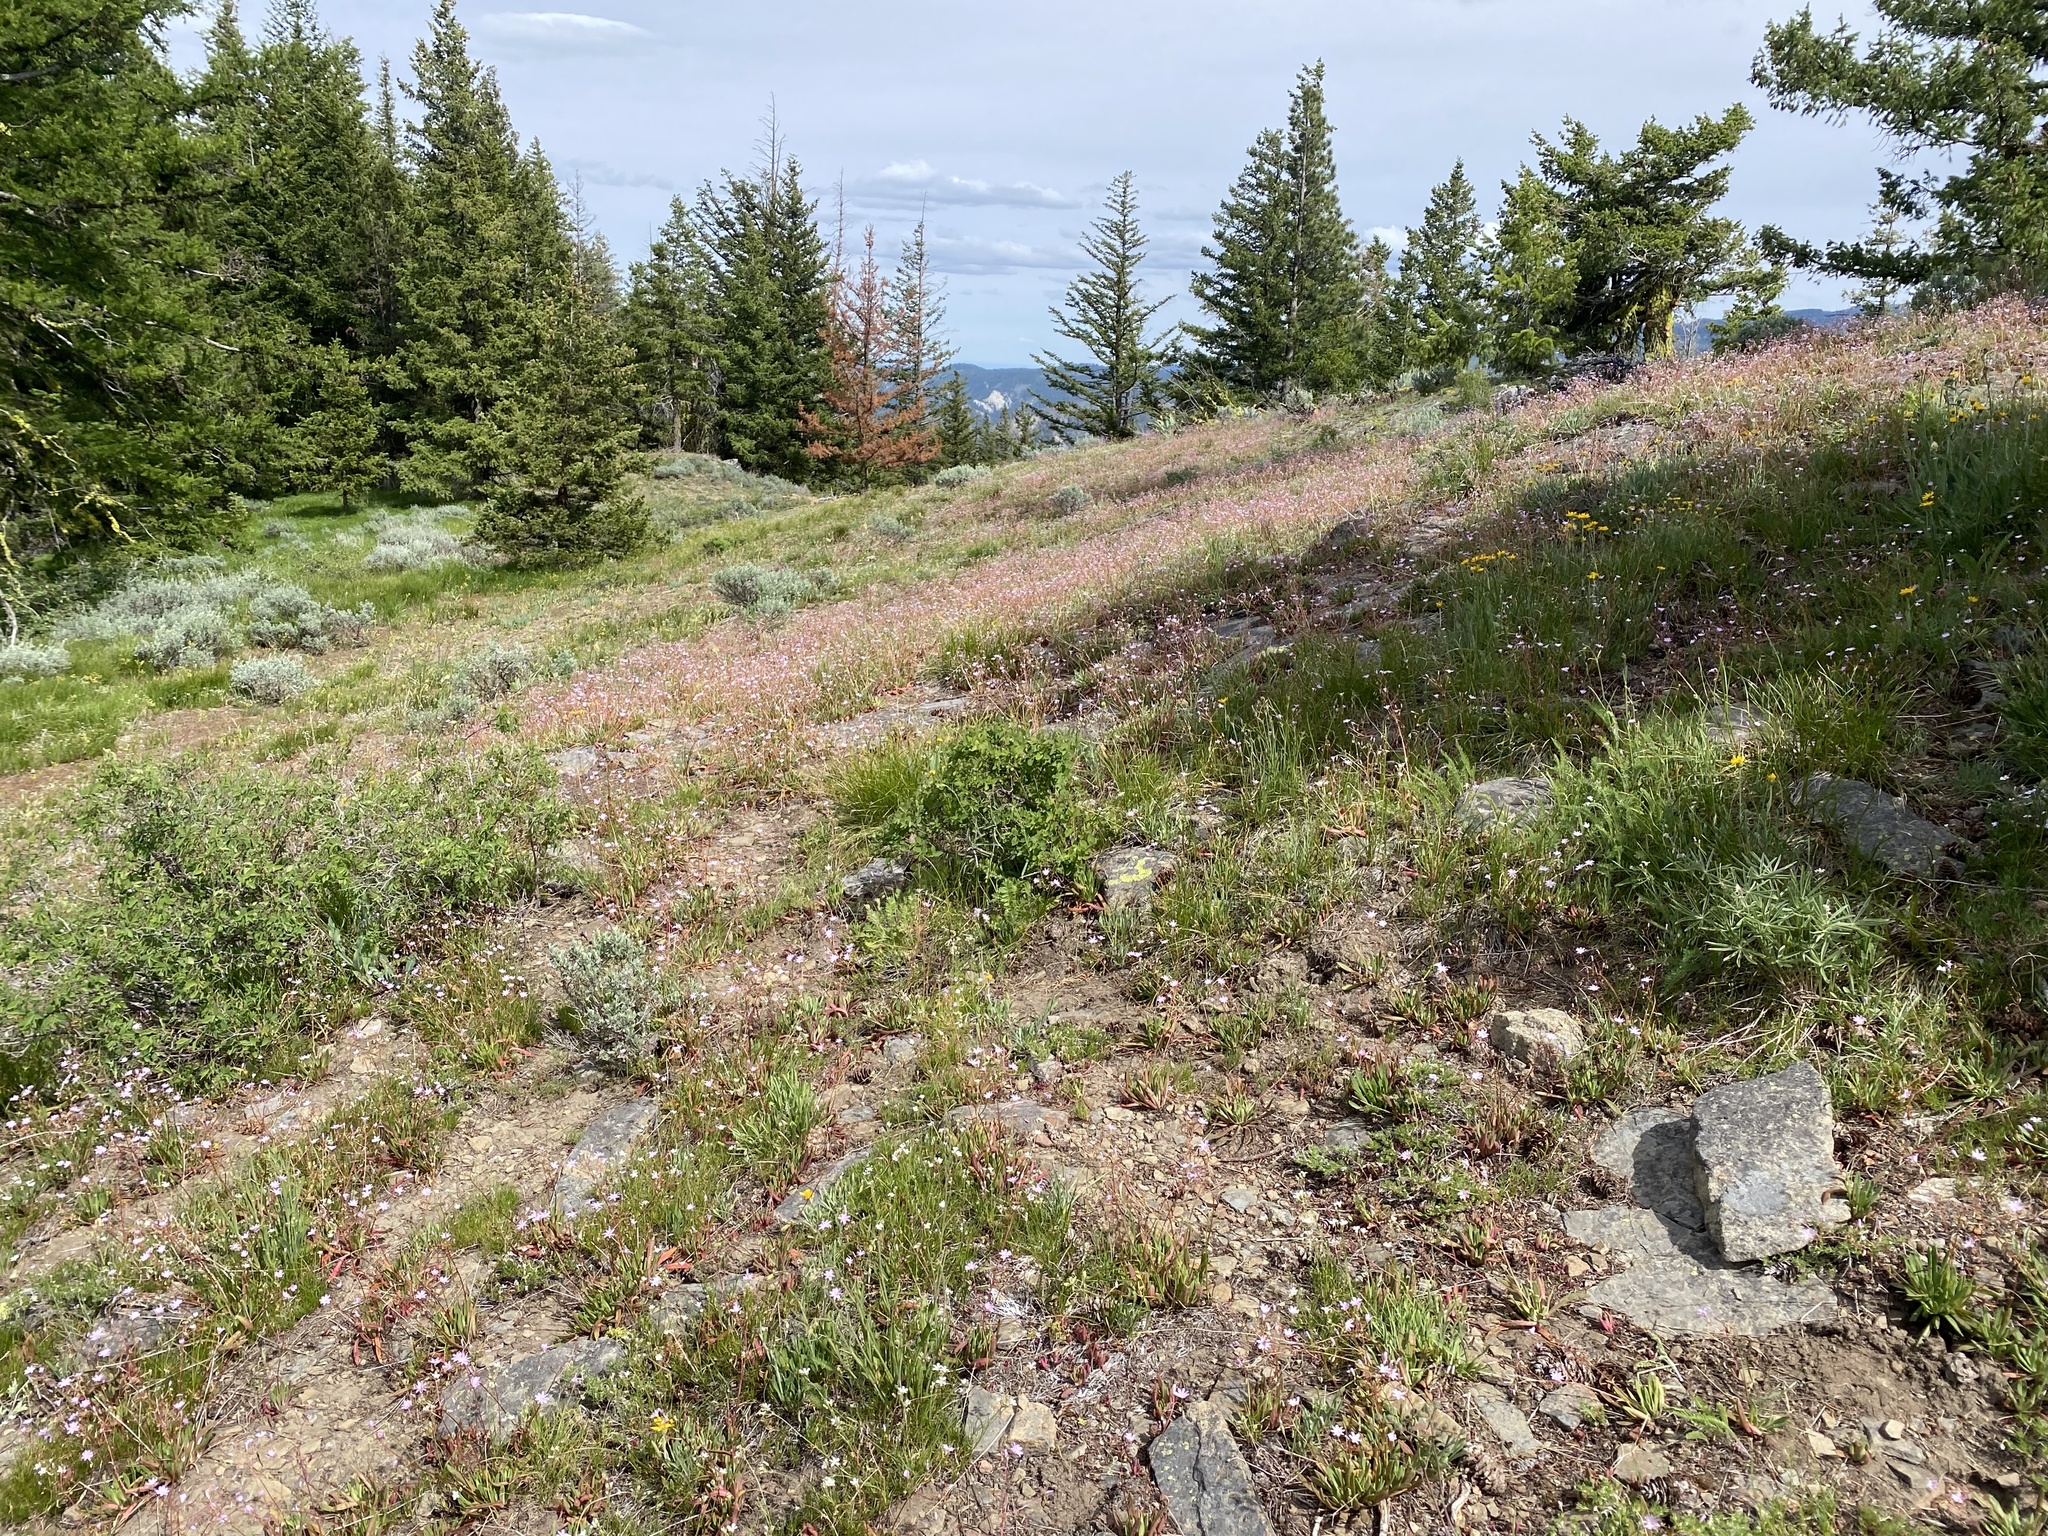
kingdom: Plantae
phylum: Tracheophyta
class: Magnoliopsida
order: Caryophyllales
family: Montiaceae
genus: Lewisia
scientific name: Lewisia columbiana
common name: Columbia lewisia
